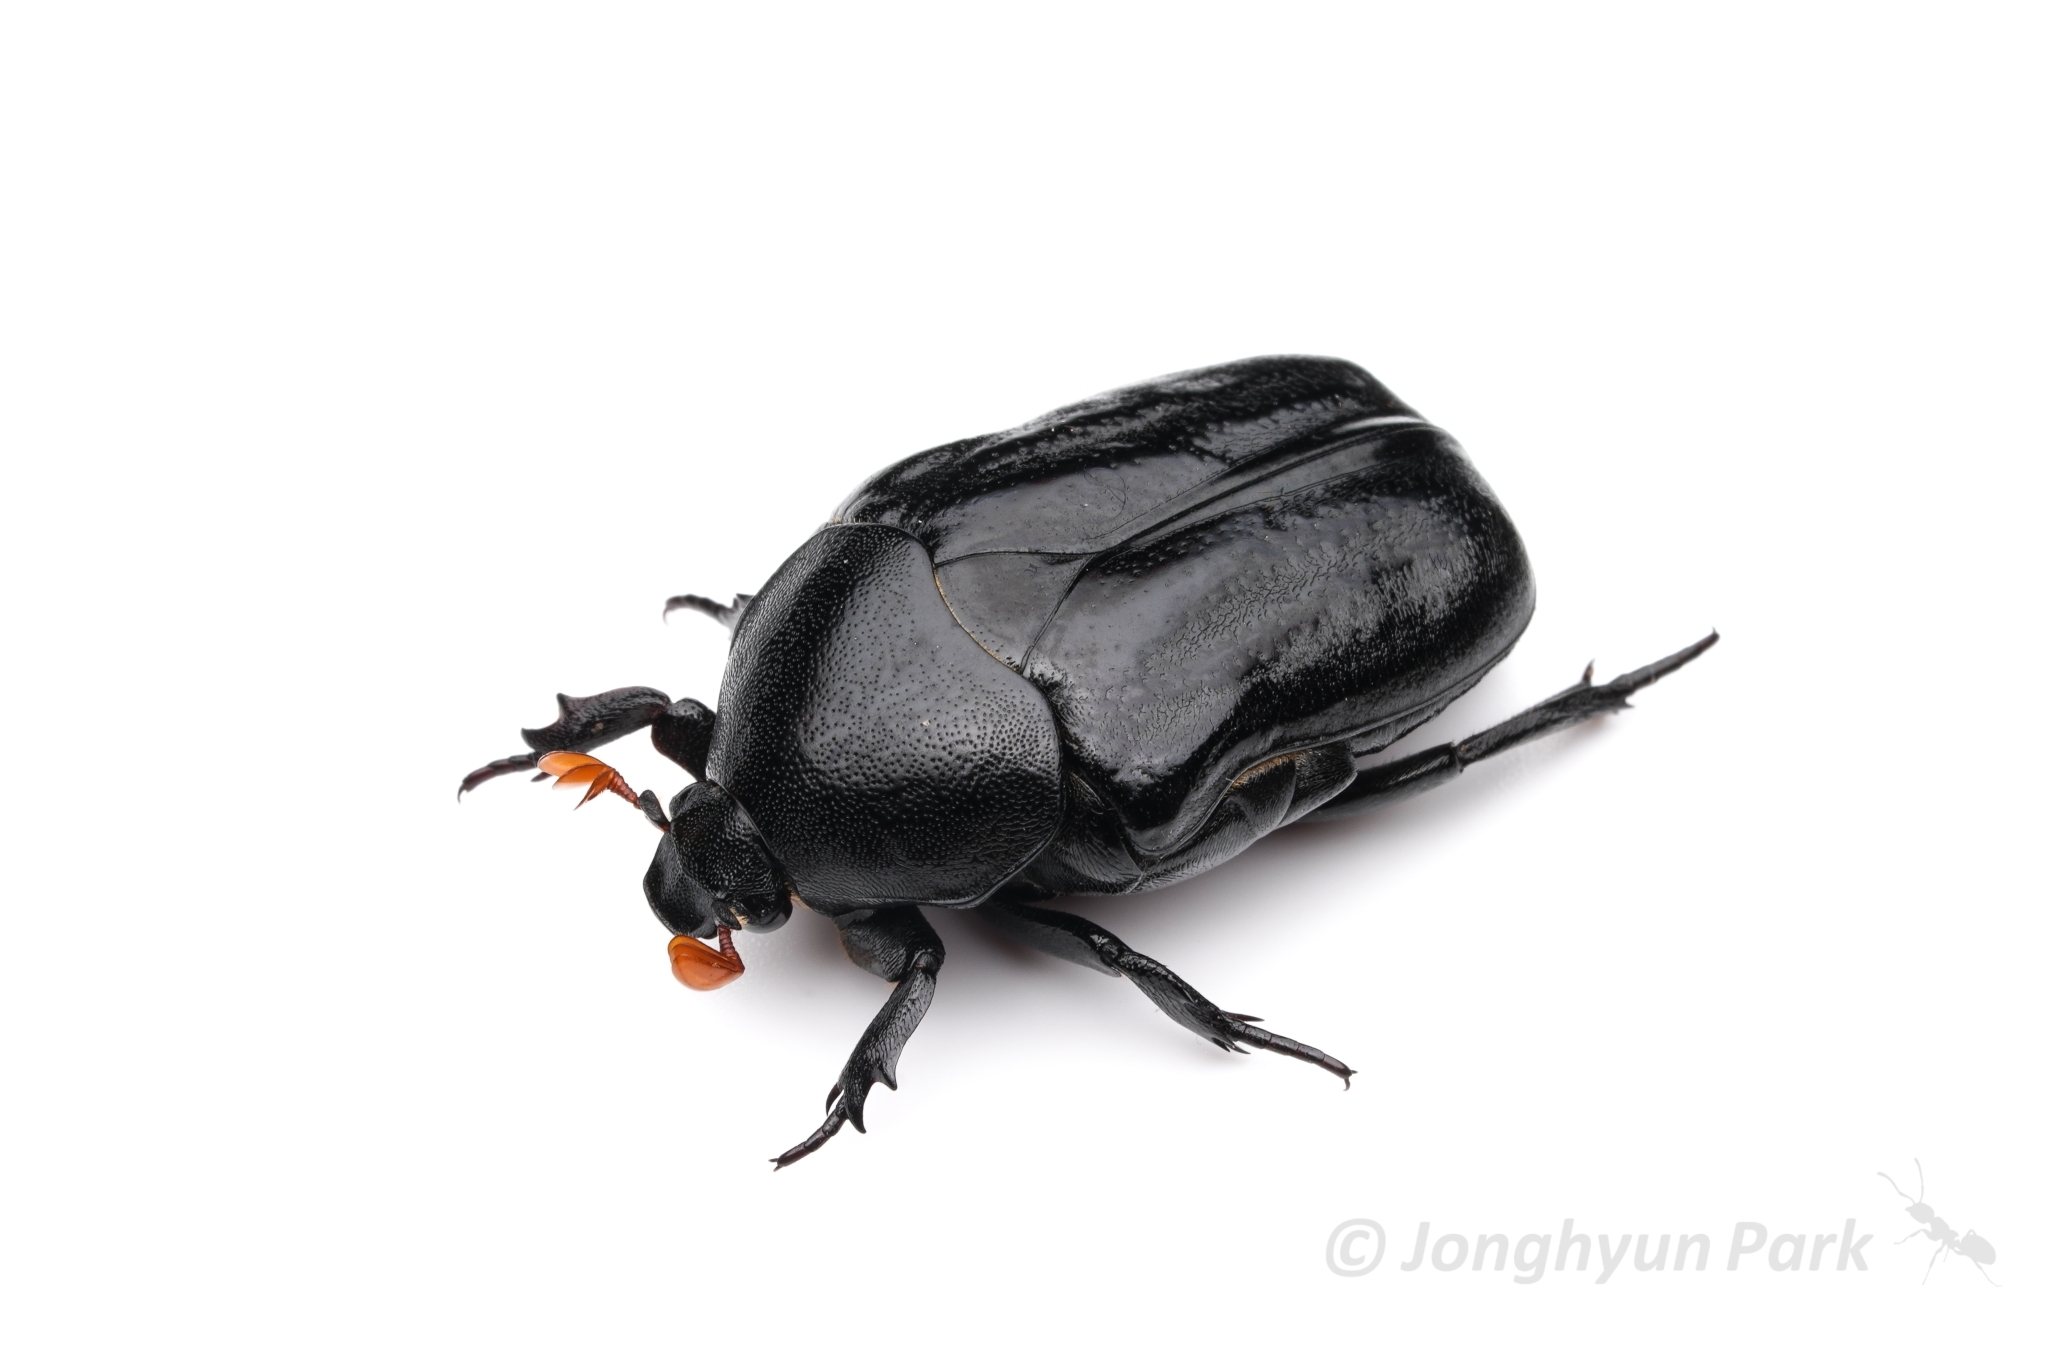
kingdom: Animalia
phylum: Arthropoda
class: Insecta
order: Coleoptera
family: Scarabaeidae
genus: Oplostomus
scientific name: Oplostomus fuligineus
